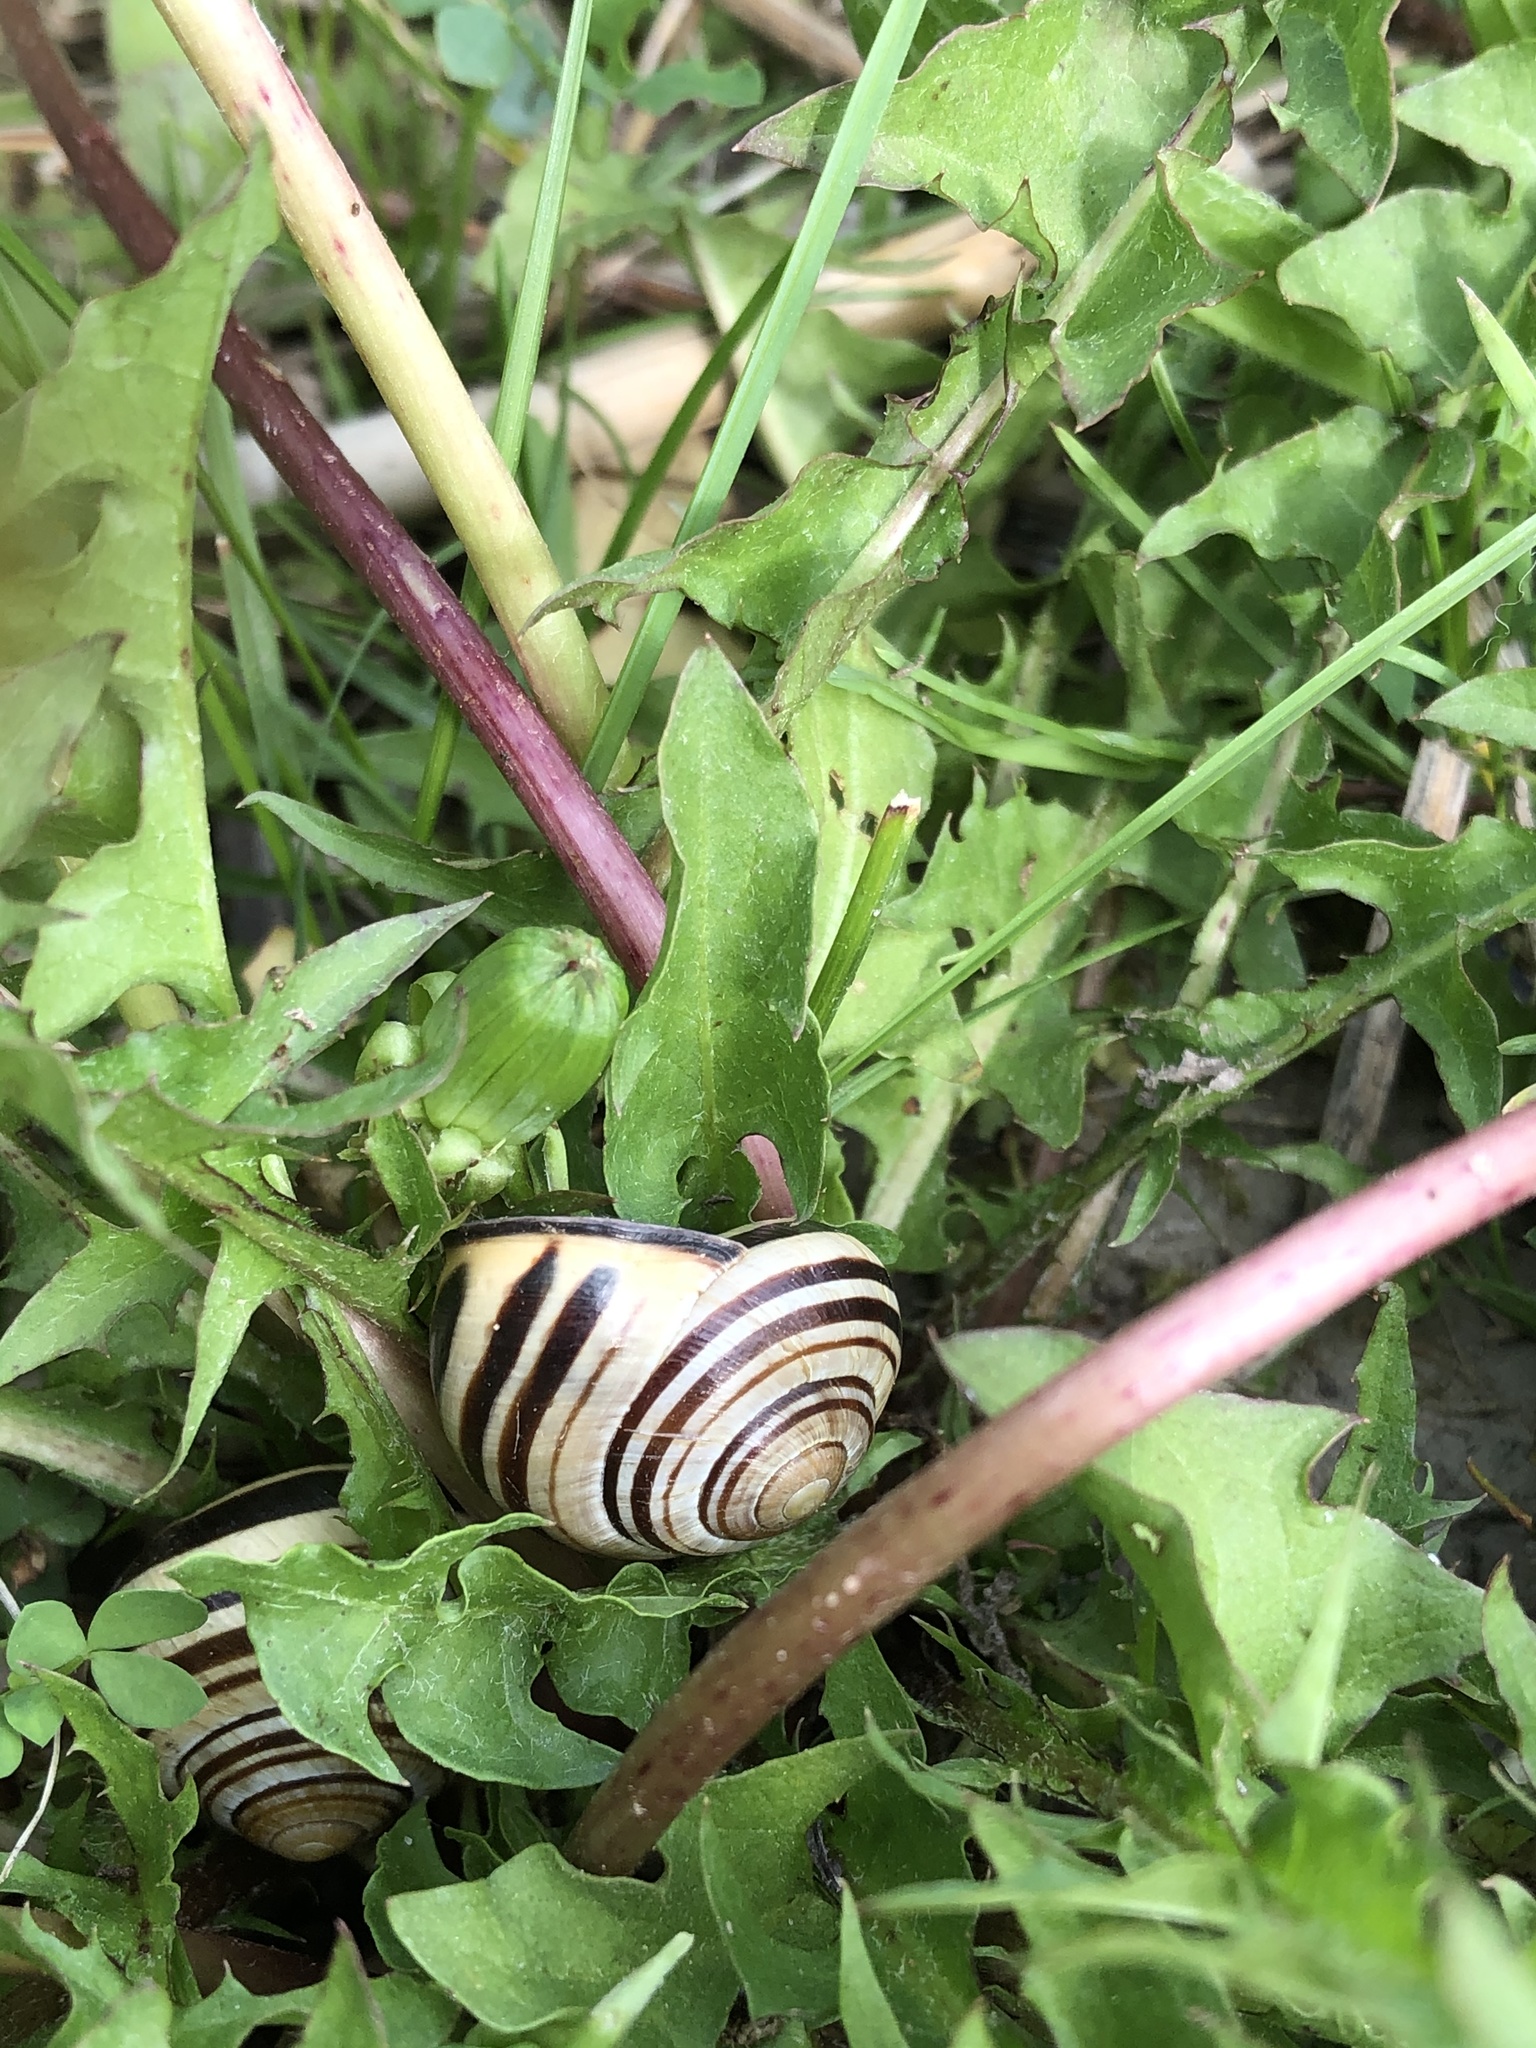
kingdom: Animalia
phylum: Mollusca
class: Gastropoda
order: Stylommatophora
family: Helicidae
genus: Cepaea
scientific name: Cepaea nemoralis
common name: Grovesnail
